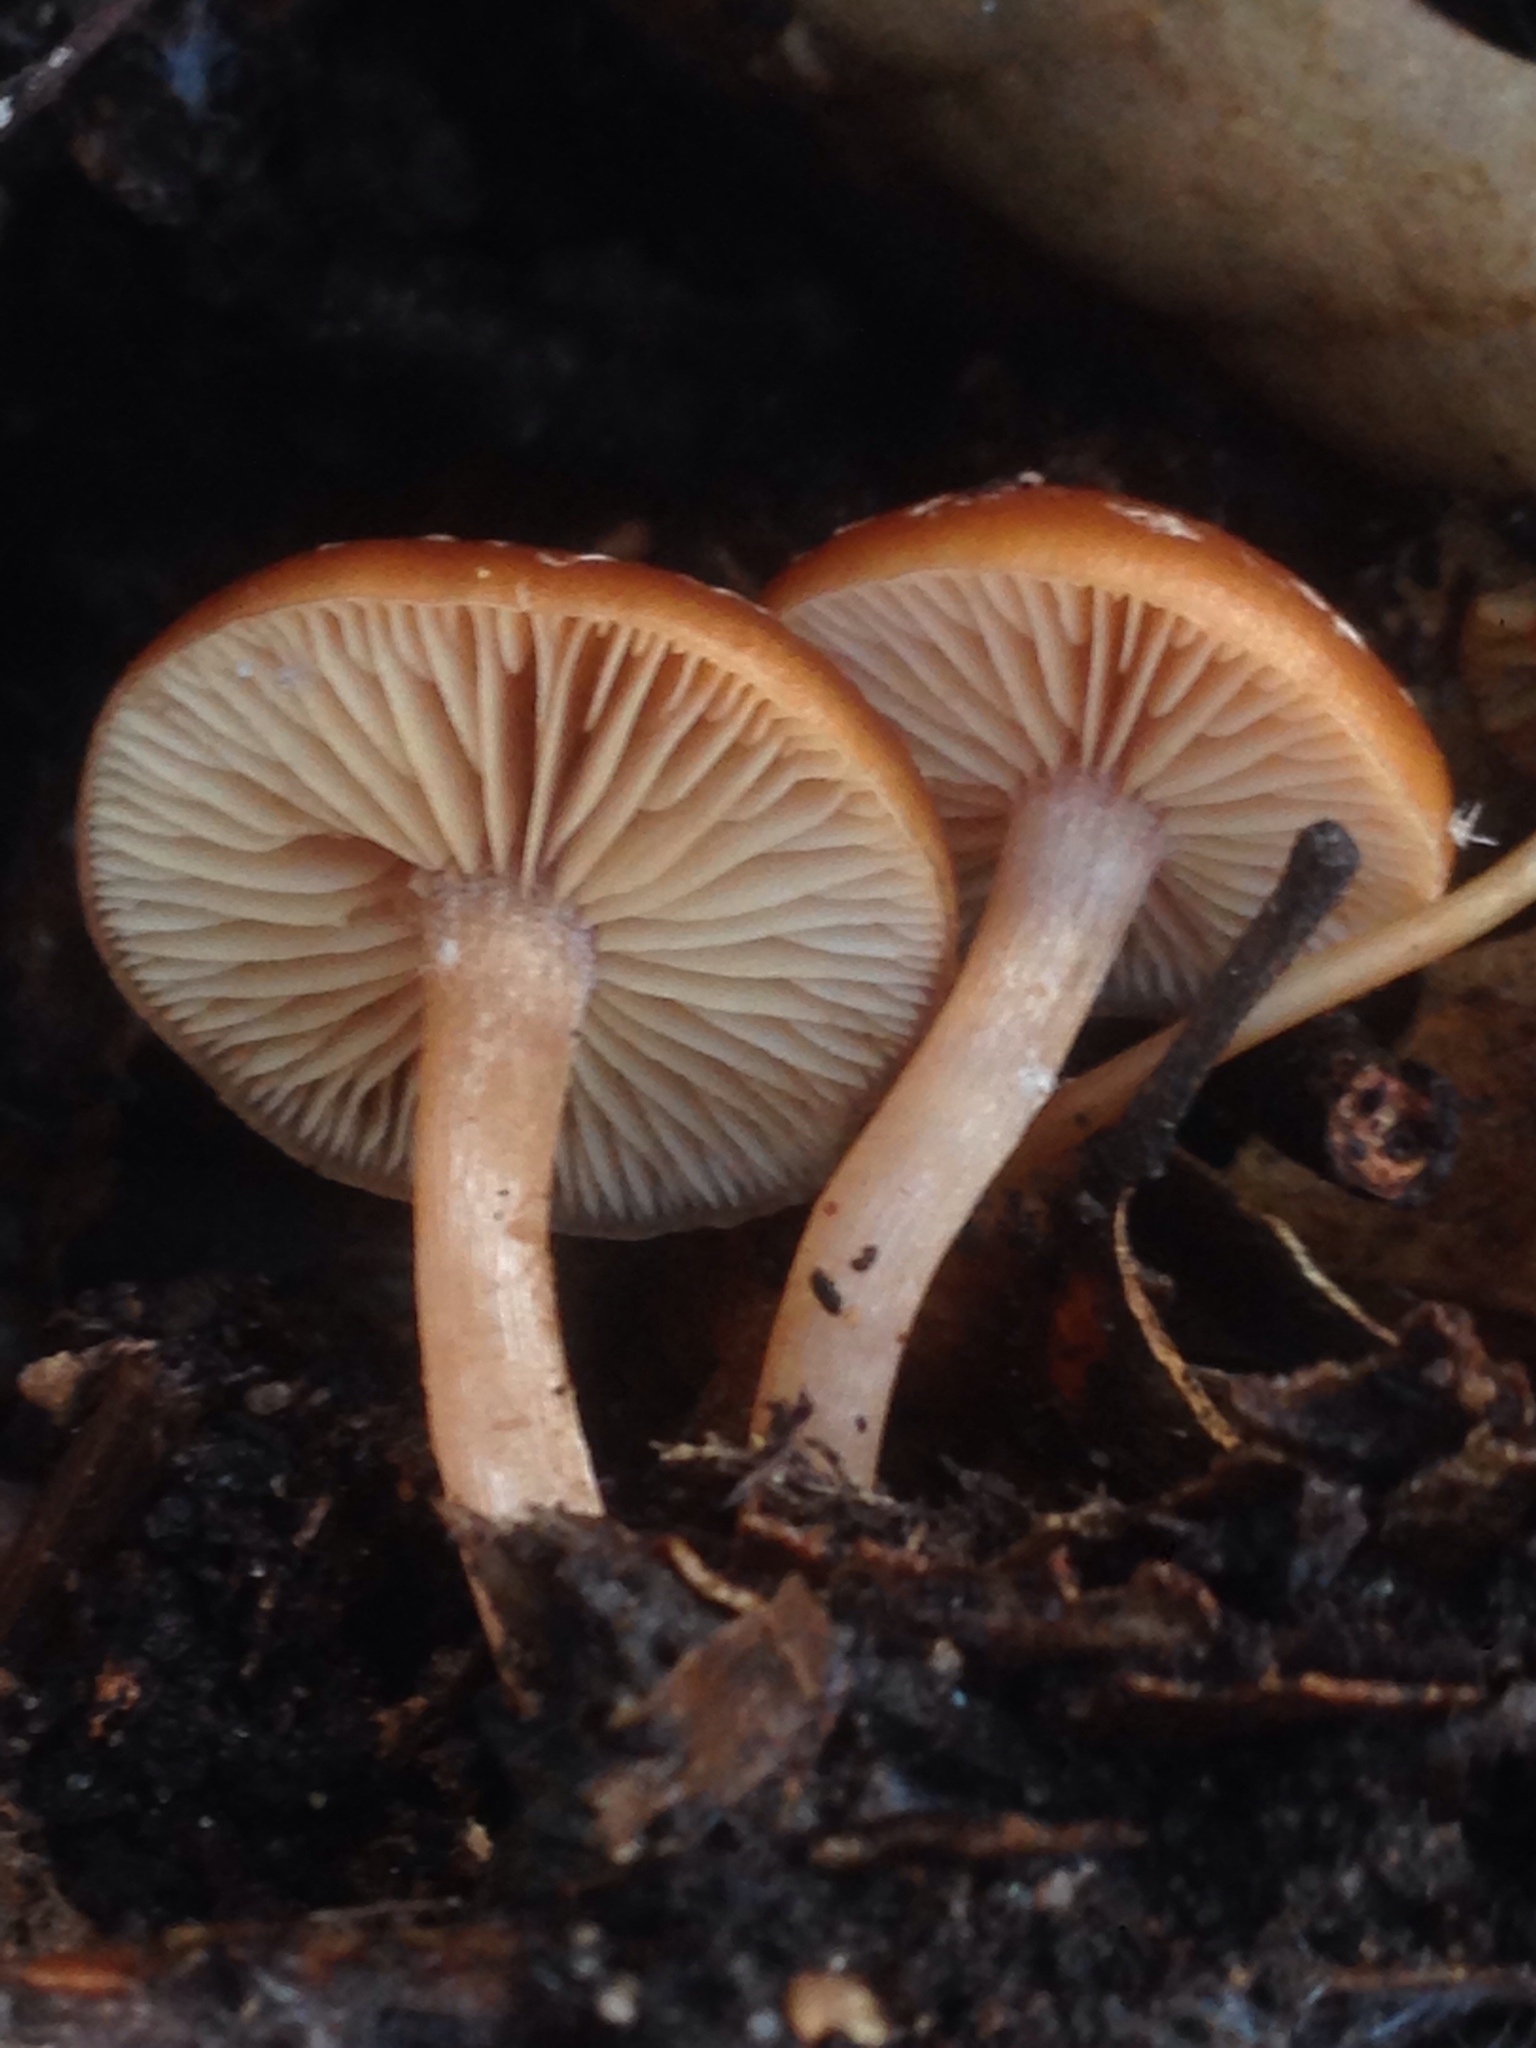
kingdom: Fungi
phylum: Basidiomycota
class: Agaricomycetes
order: Agaricales
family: Tubariaceae
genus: Tubaria
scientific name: Tubaria furfuracea
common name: Scurfy twiglet
